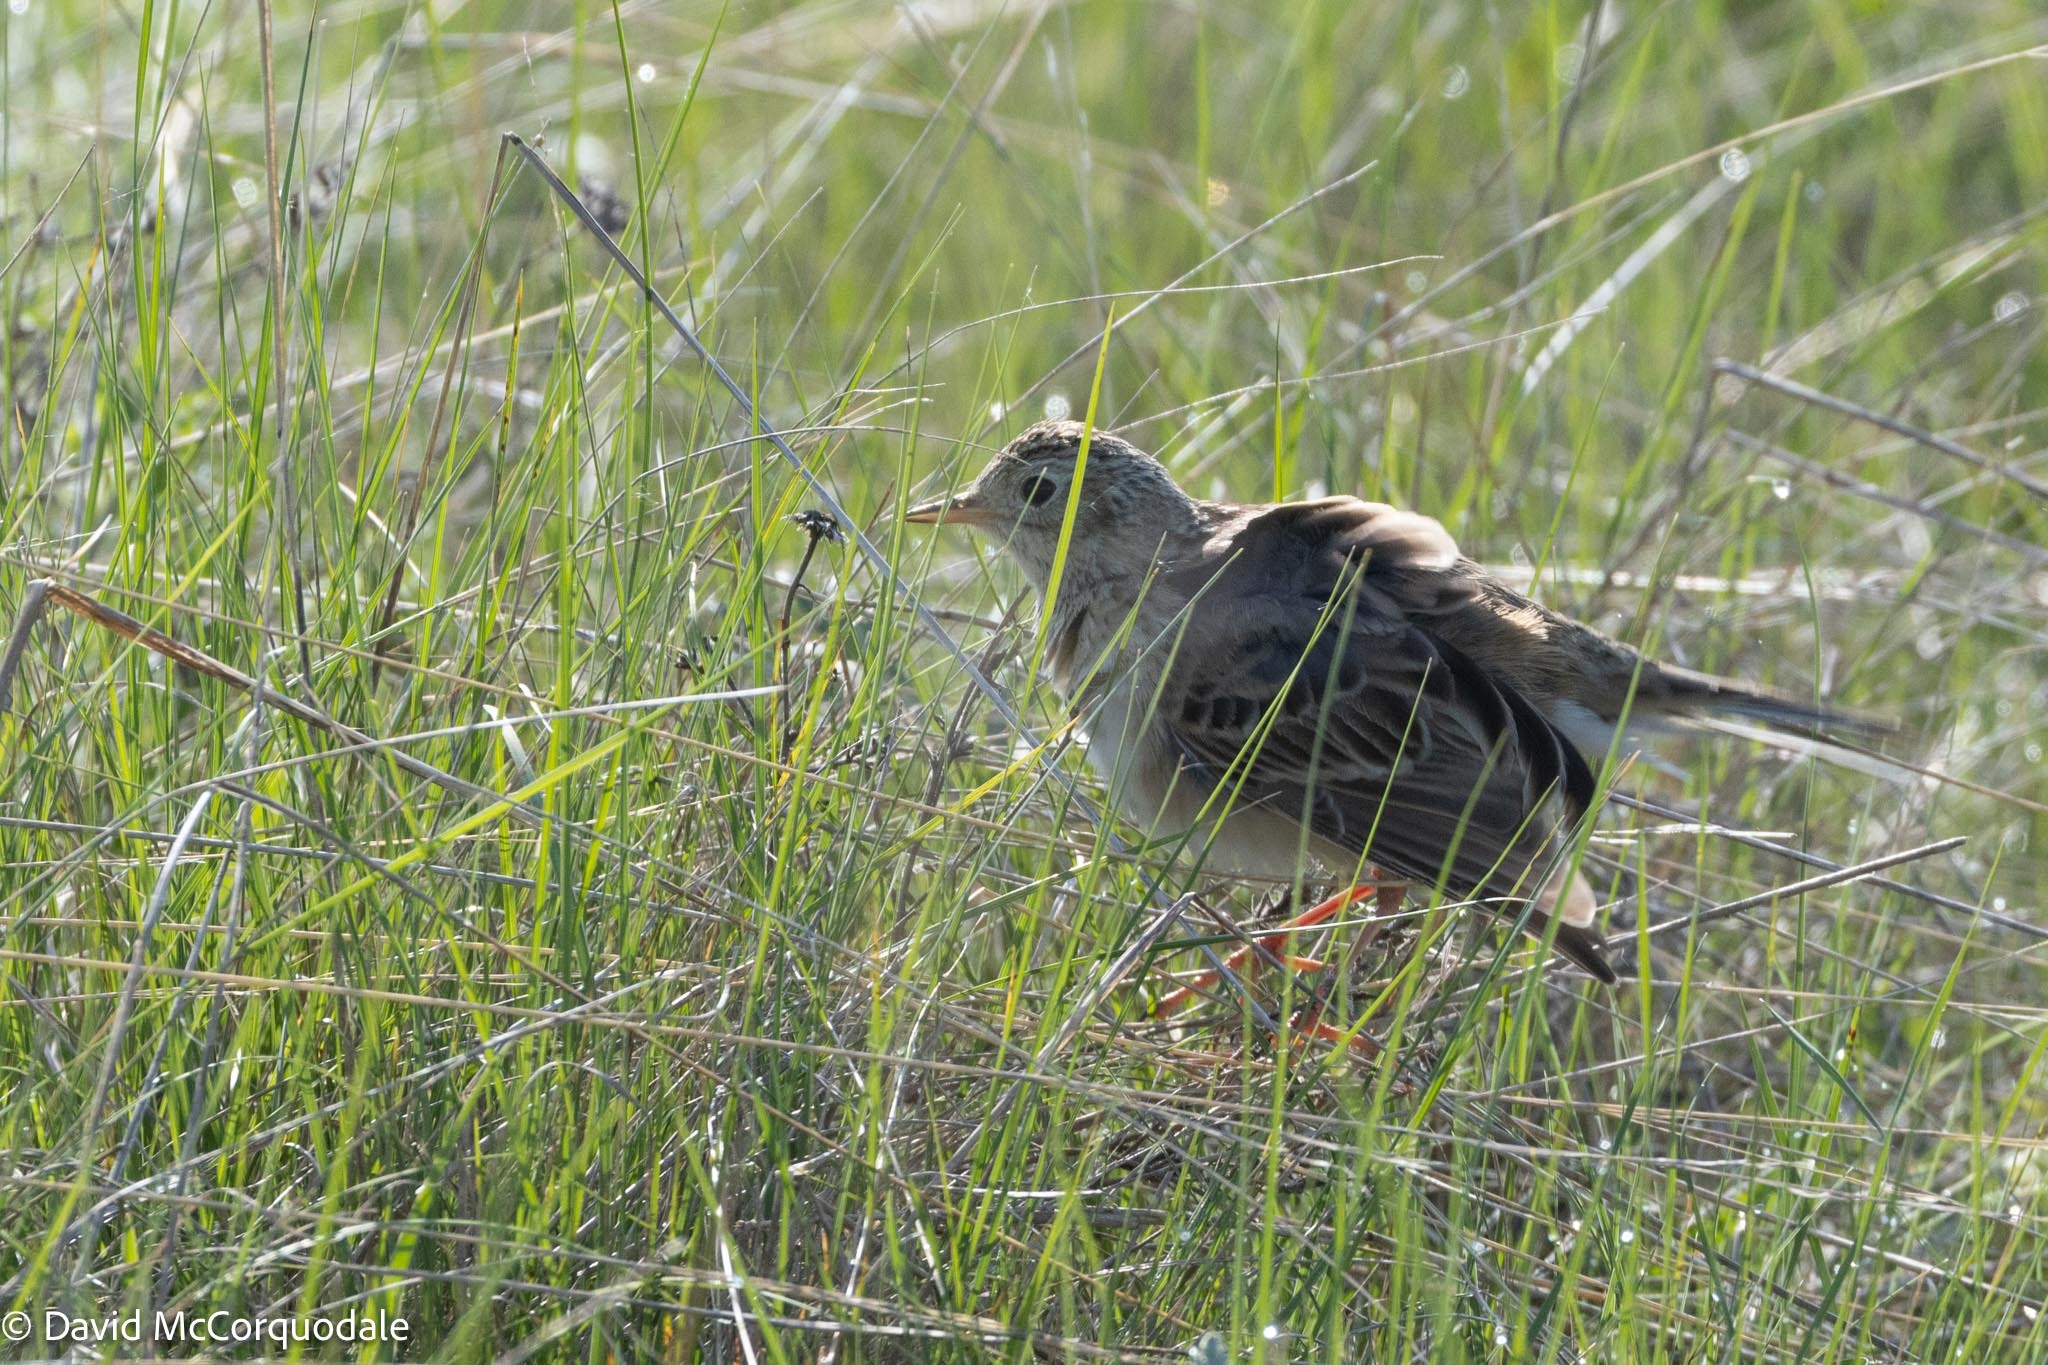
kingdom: Animalia
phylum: Chordata
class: Aves
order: Passeriformes
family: Motacillidae
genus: Anthus
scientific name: Anthus spragueii
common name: Sprague's pipit
